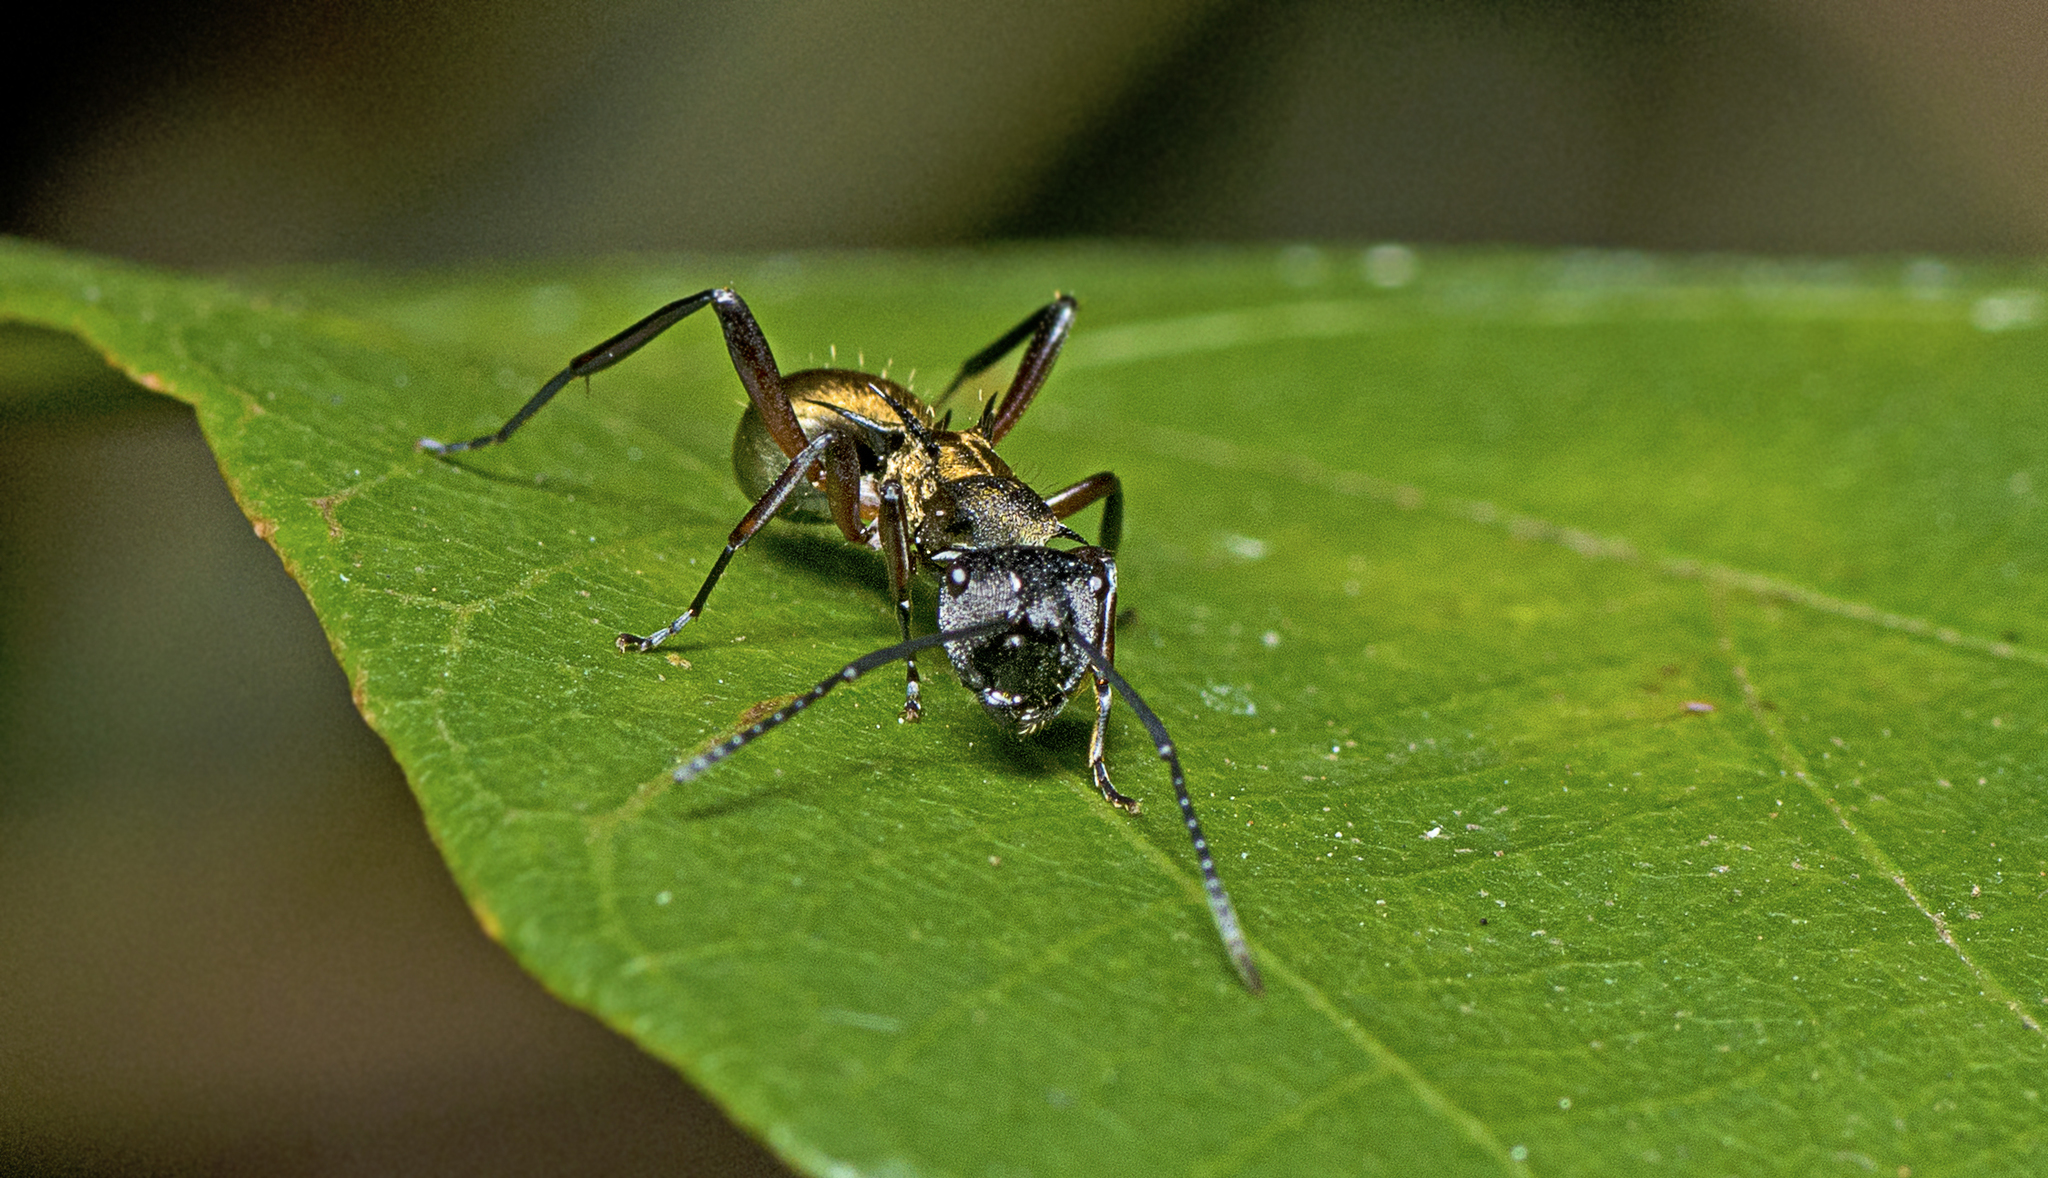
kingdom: Animalia
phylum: Arthropoda
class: Insecta
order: Hymenoptera
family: Formicidae
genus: Polyrhachis
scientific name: Polyrhachis rufifemur
